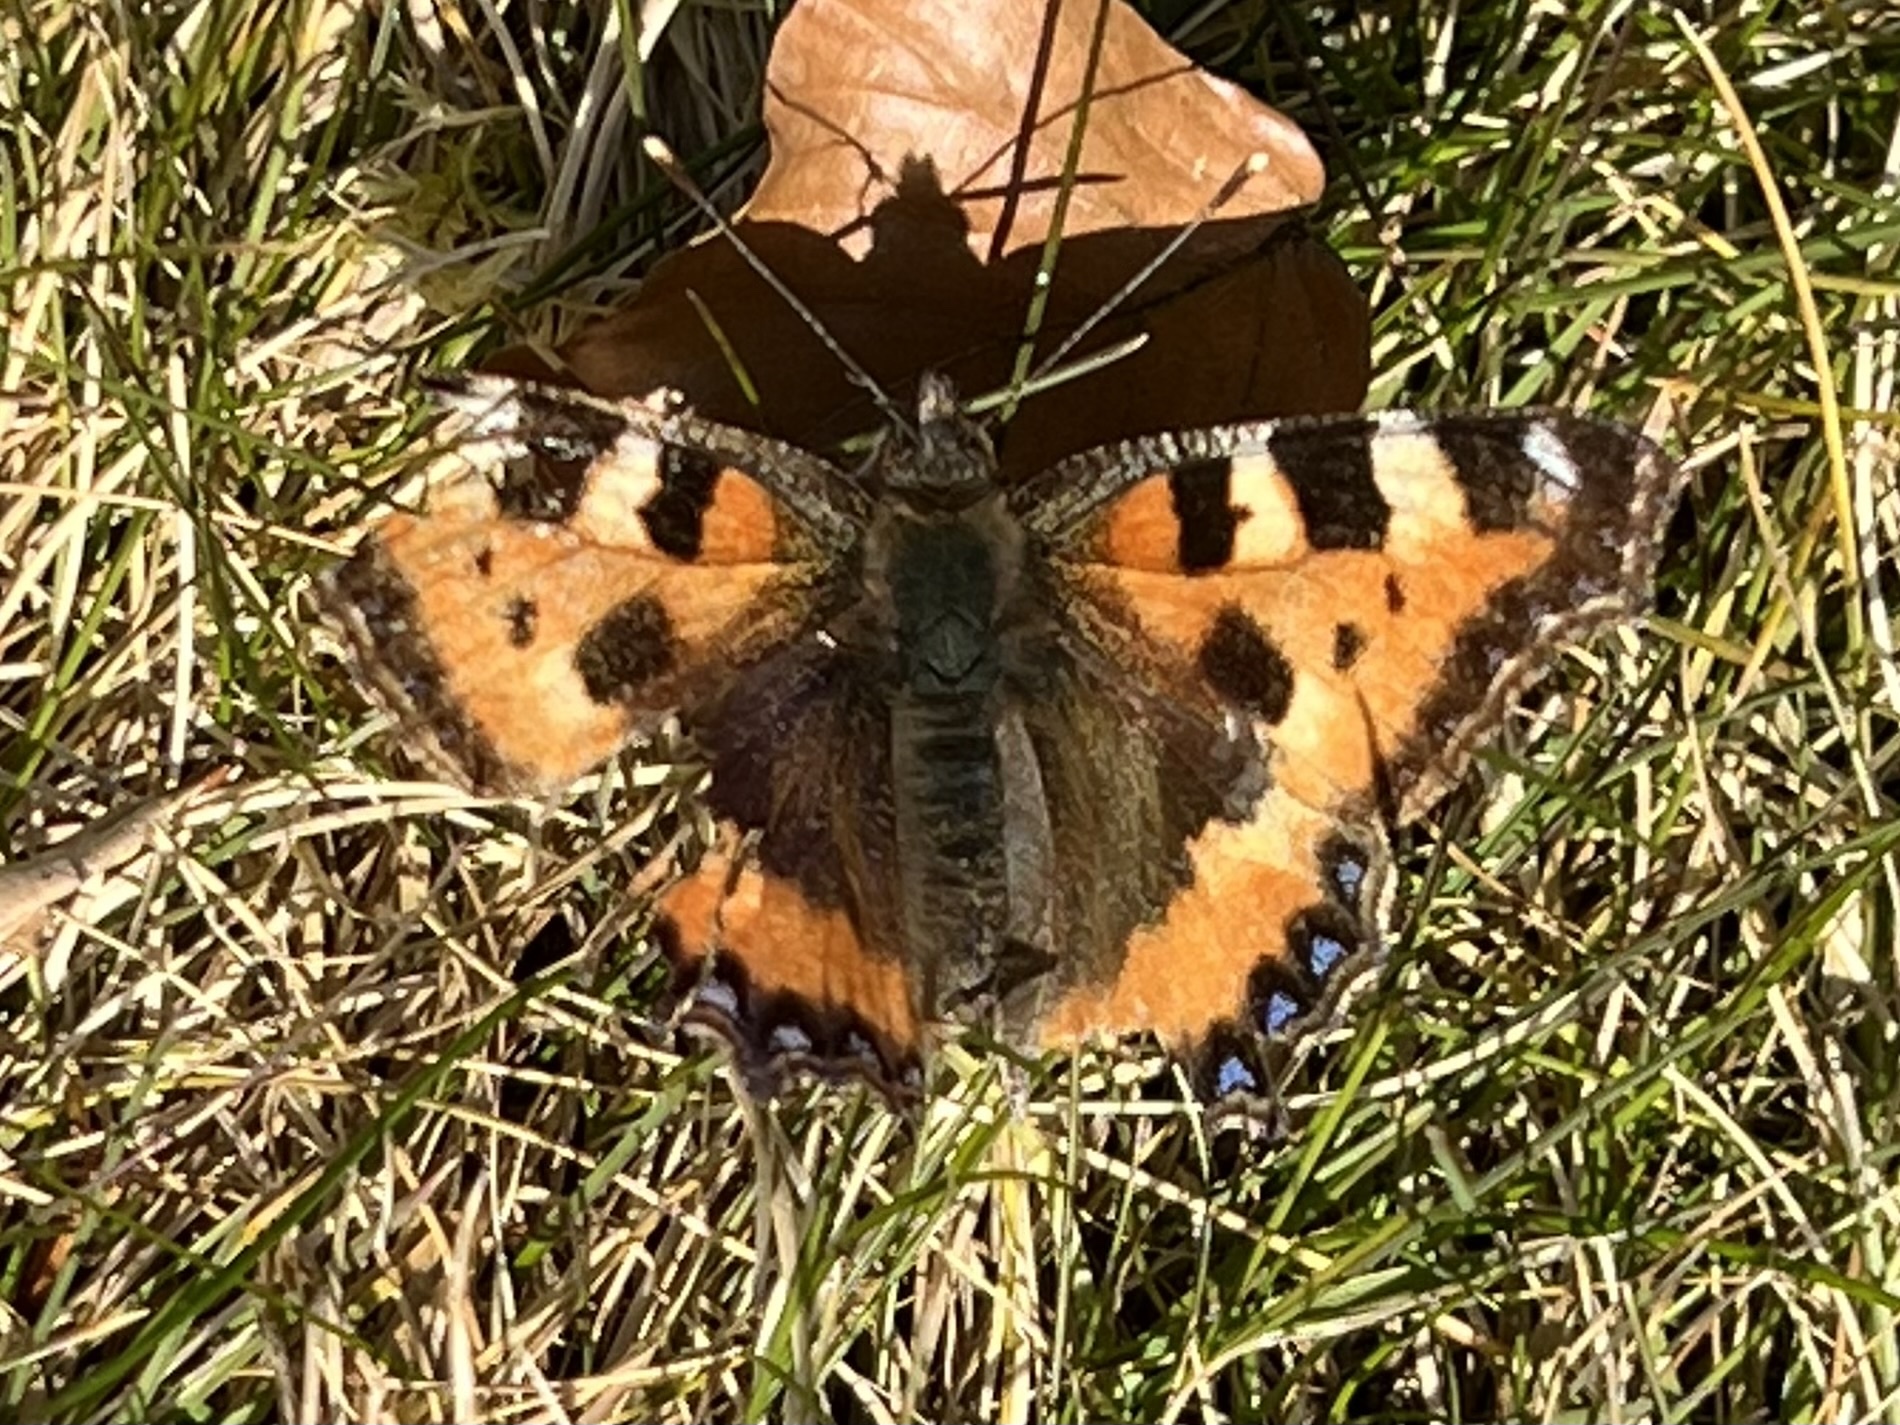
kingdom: Animalia
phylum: Arthropoda
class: Insecta
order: Lepidoptera
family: Nymphalidae
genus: Aglais
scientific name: Aglais urticae
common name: Small tortoiseshell
